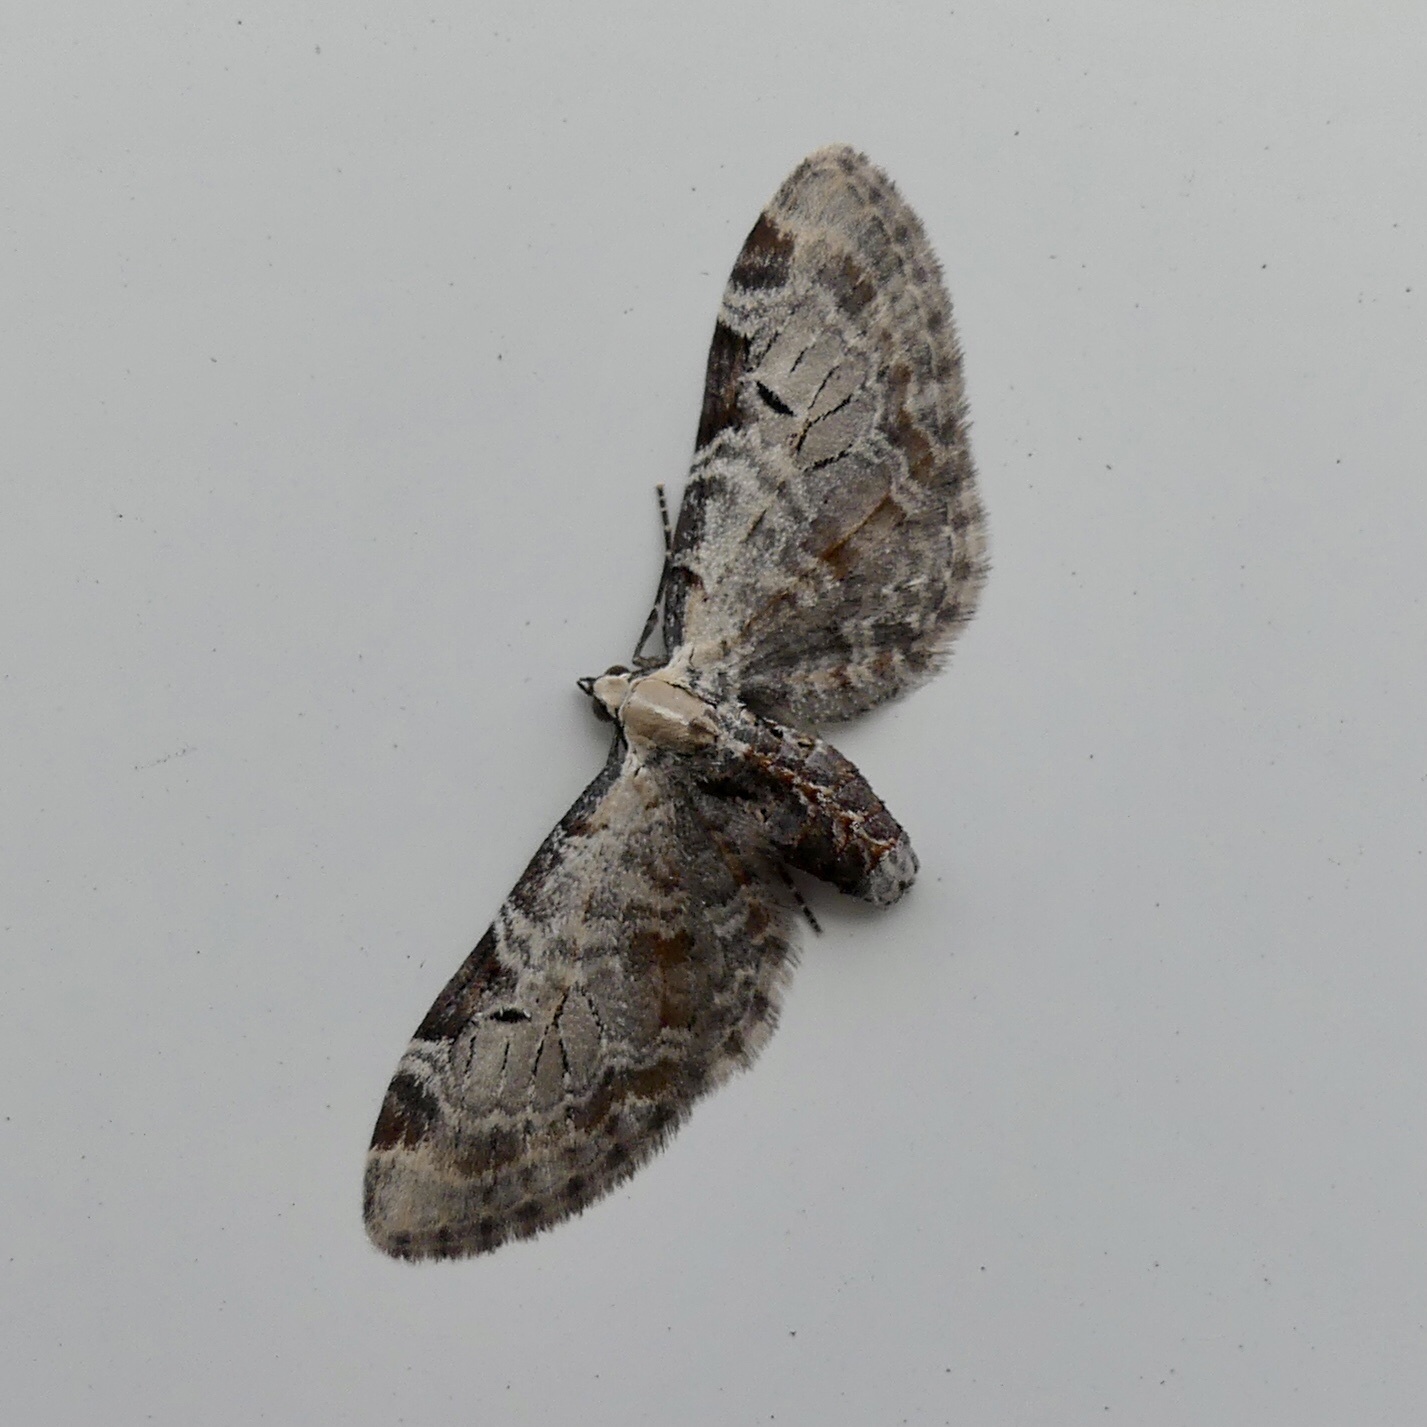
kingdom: Animalia
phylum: Arthropoda
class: Insecta
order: Lepidoptera
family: Geometridae
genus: Eupithecia
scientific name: Eupithecia ravocostaliata
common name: Great varigated pug
